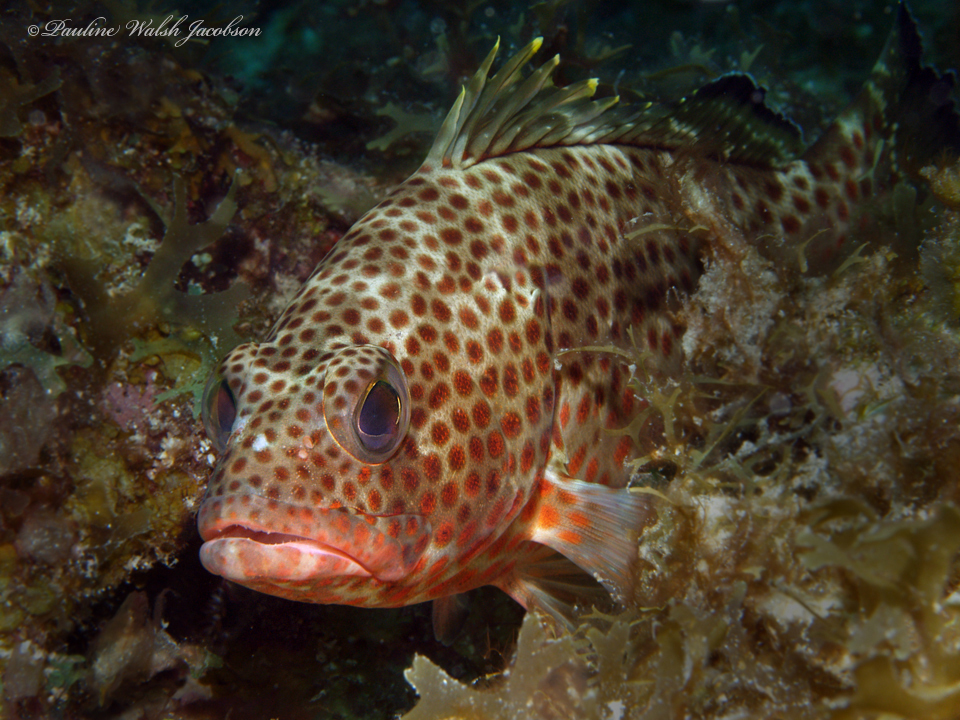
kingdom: Animalia
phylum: Chordata
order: Perciformes
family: Serranidae
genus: Epinephelus
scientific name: Epinephelus guttatus
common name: Red hind
